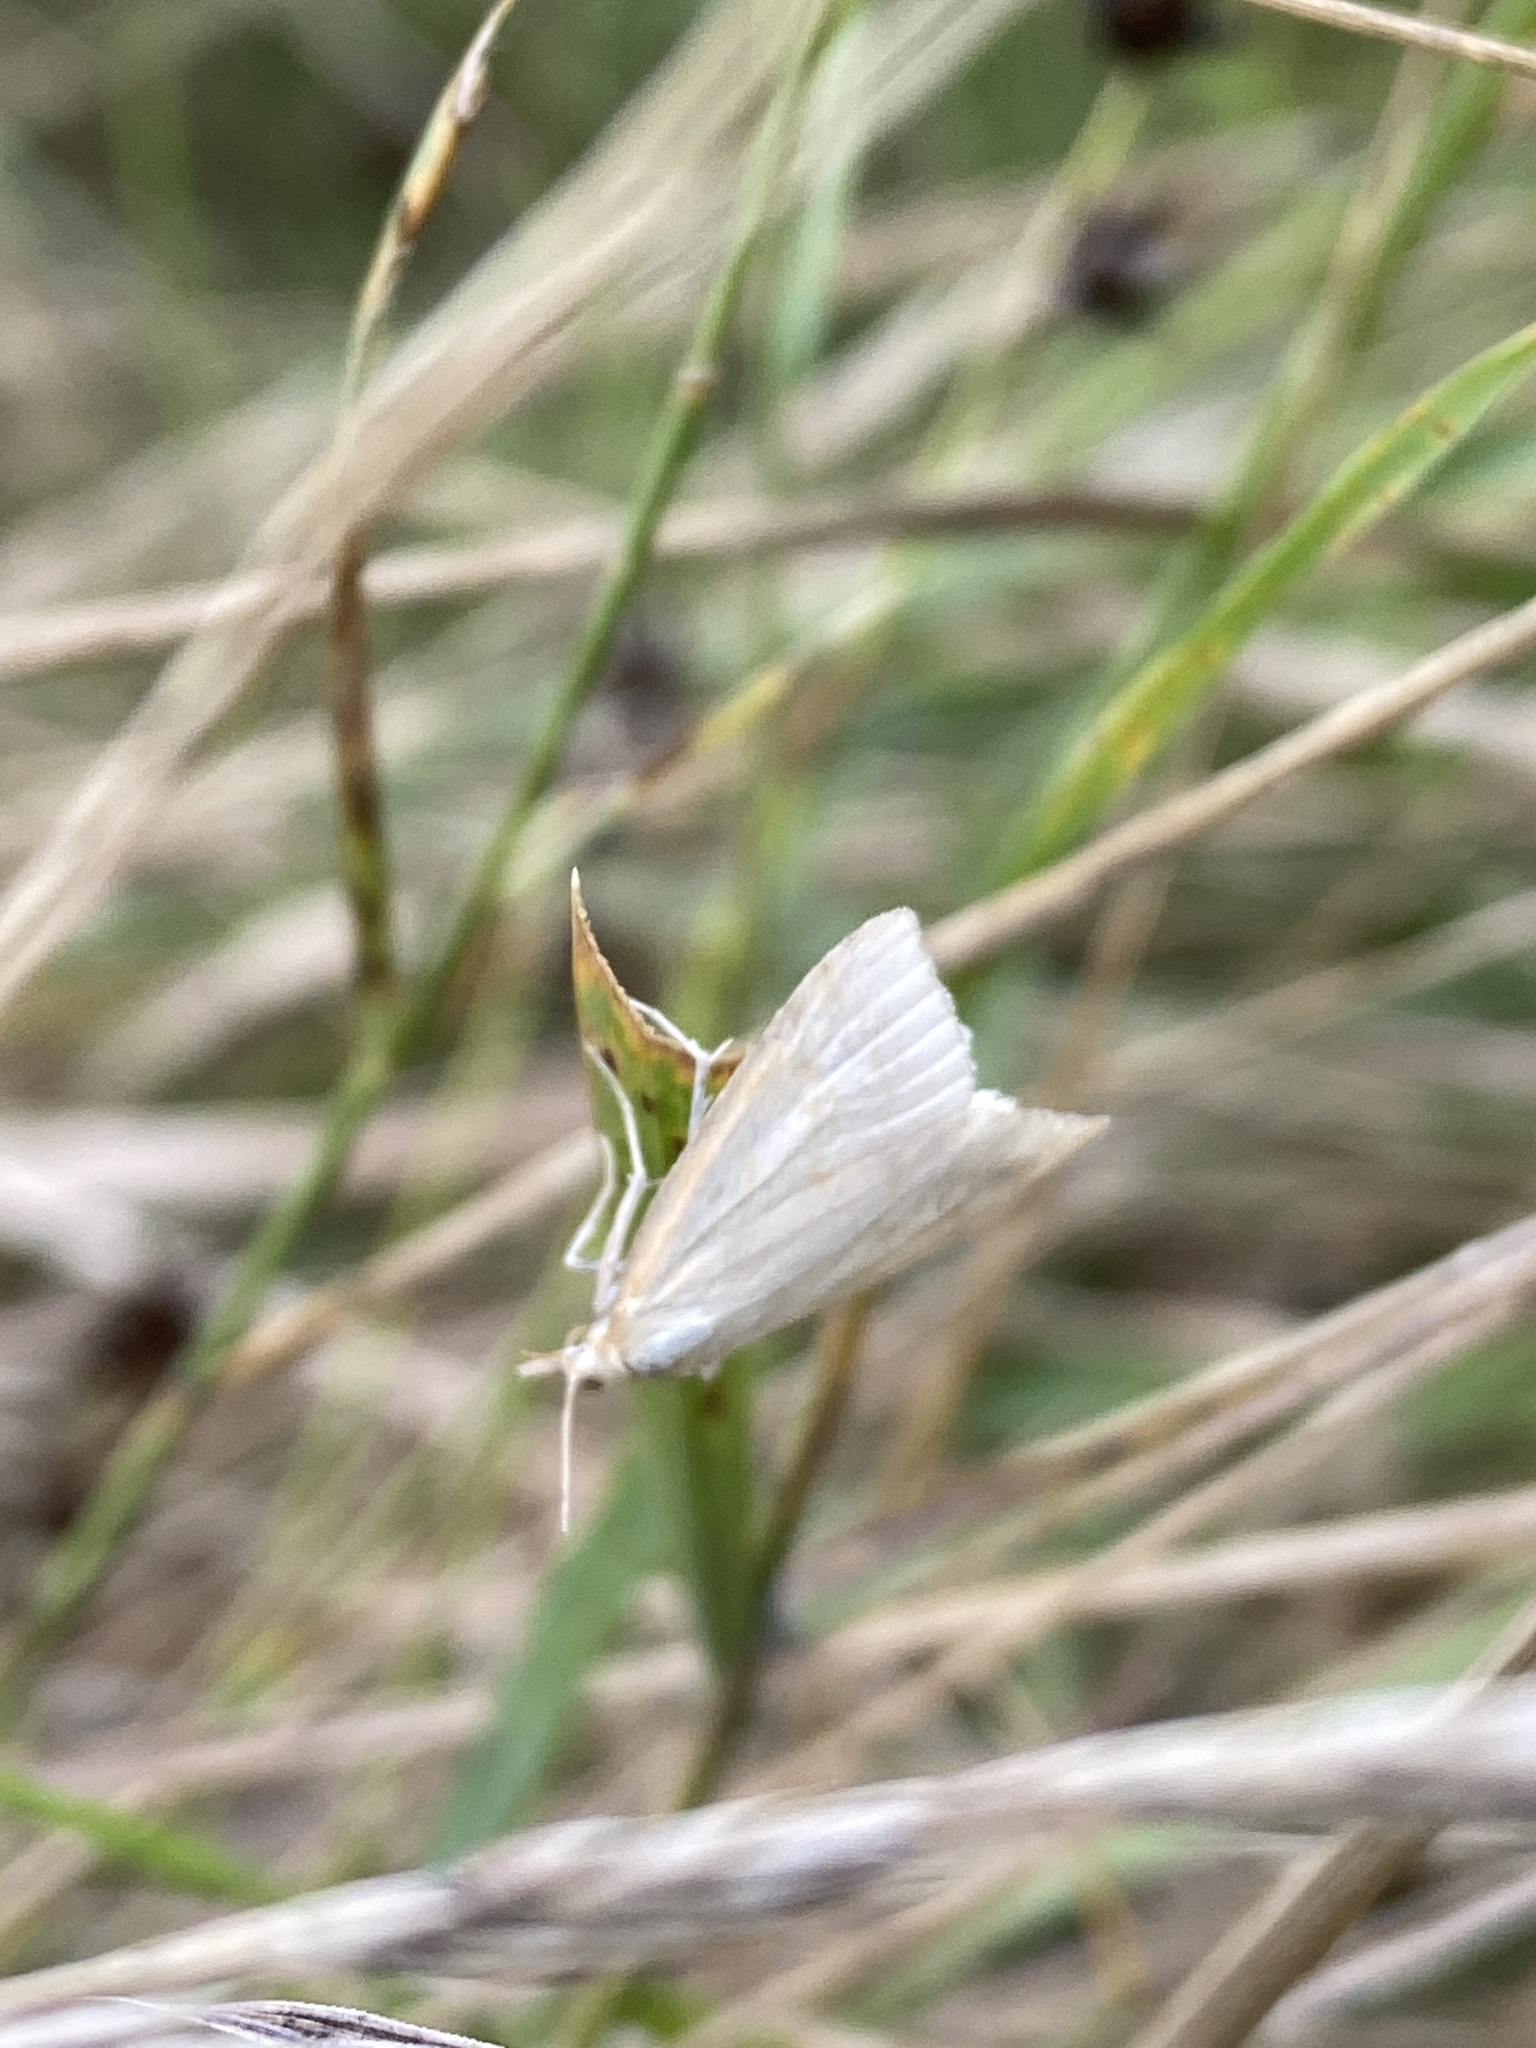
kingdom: Animalia
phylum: Arthropoda
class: Insecta
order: Lepidoptera
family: Crambidae
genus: Udea
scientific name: Udea lutealis
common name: Pale straw pearl
